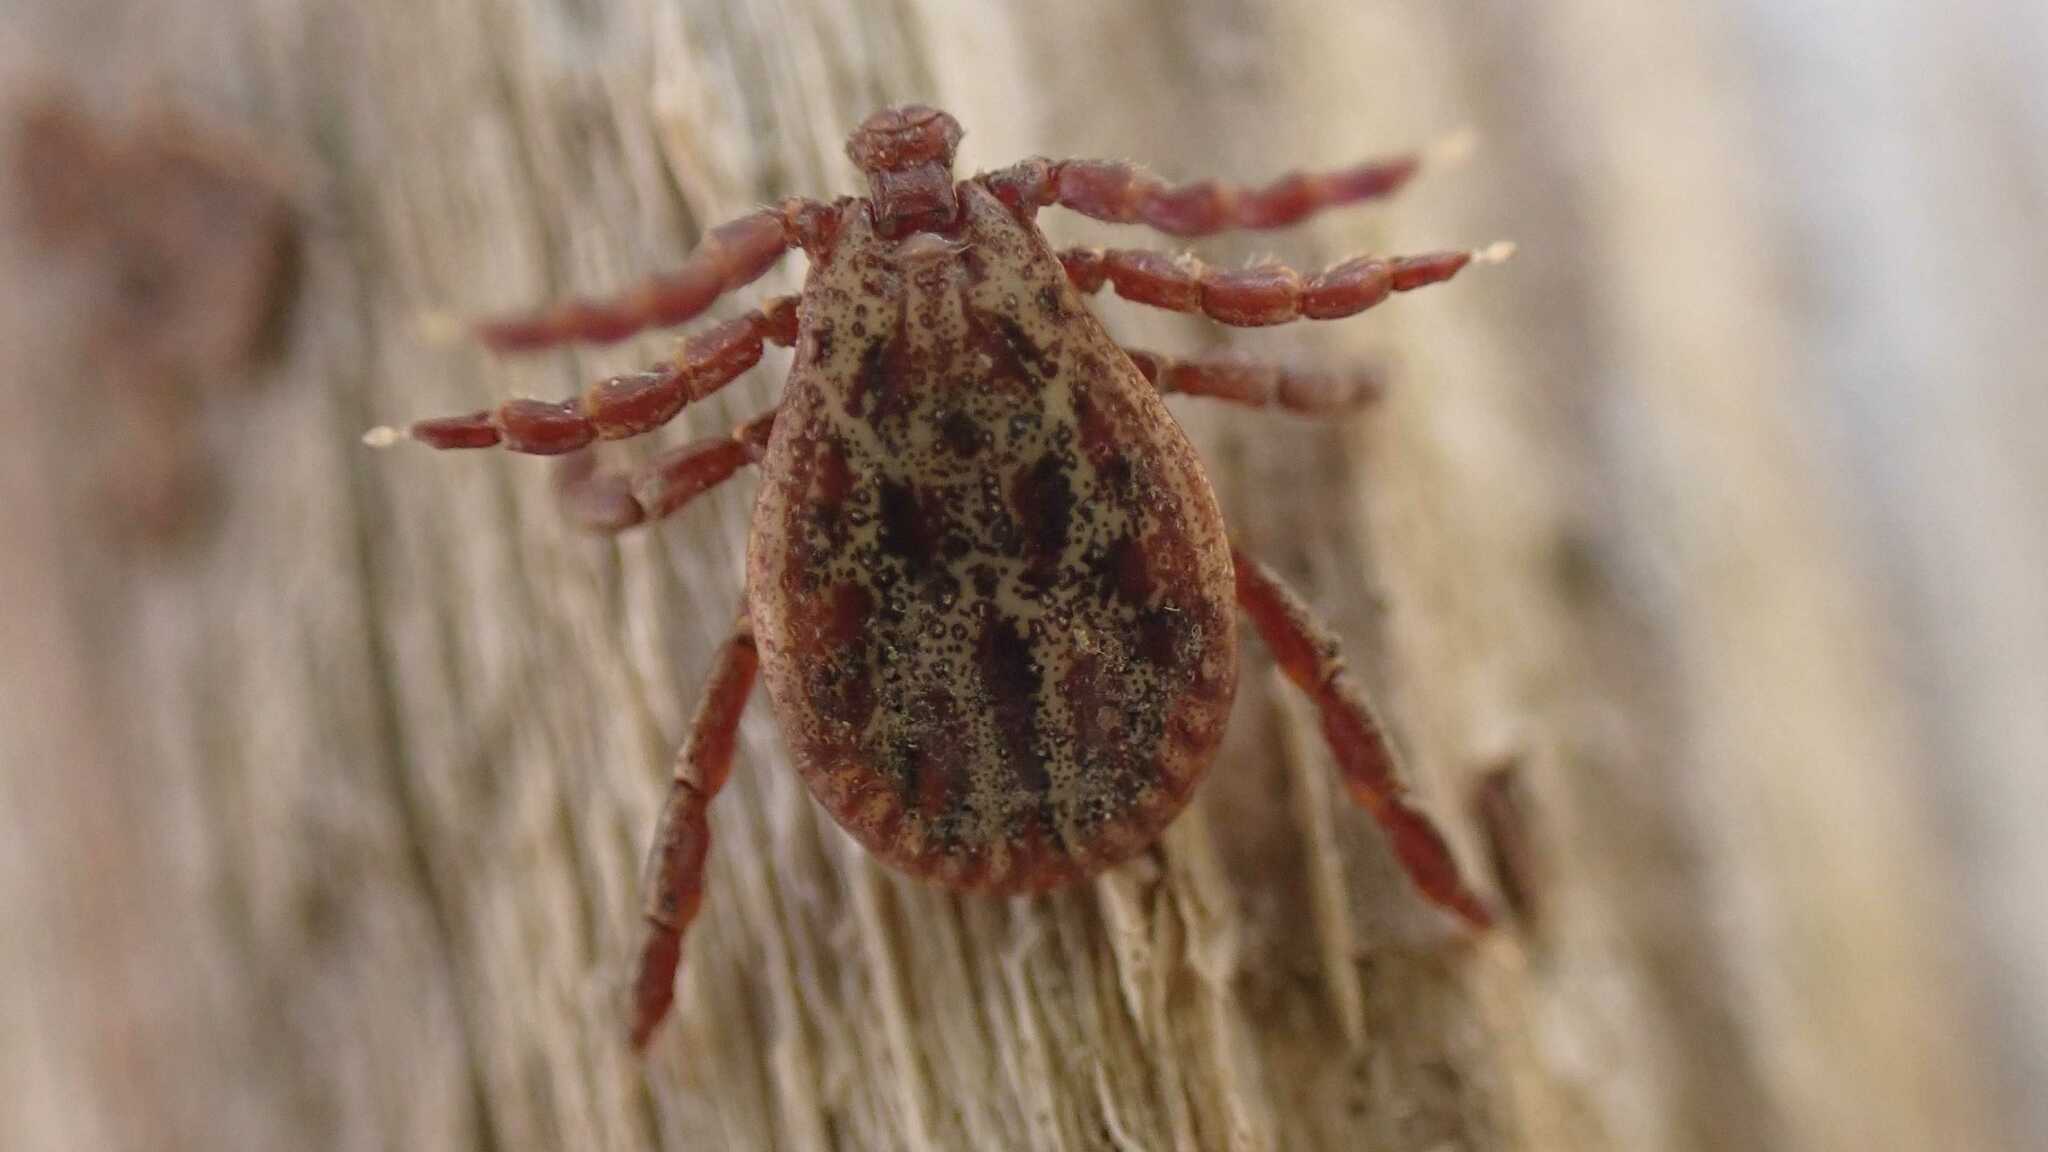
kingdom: Animalia
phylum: Arthropoda
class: Arachnida
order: Ixodida
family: Ixodidae
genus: Dermacentor
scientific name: Dermacentor reticulatus
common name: Ornate cow tick
